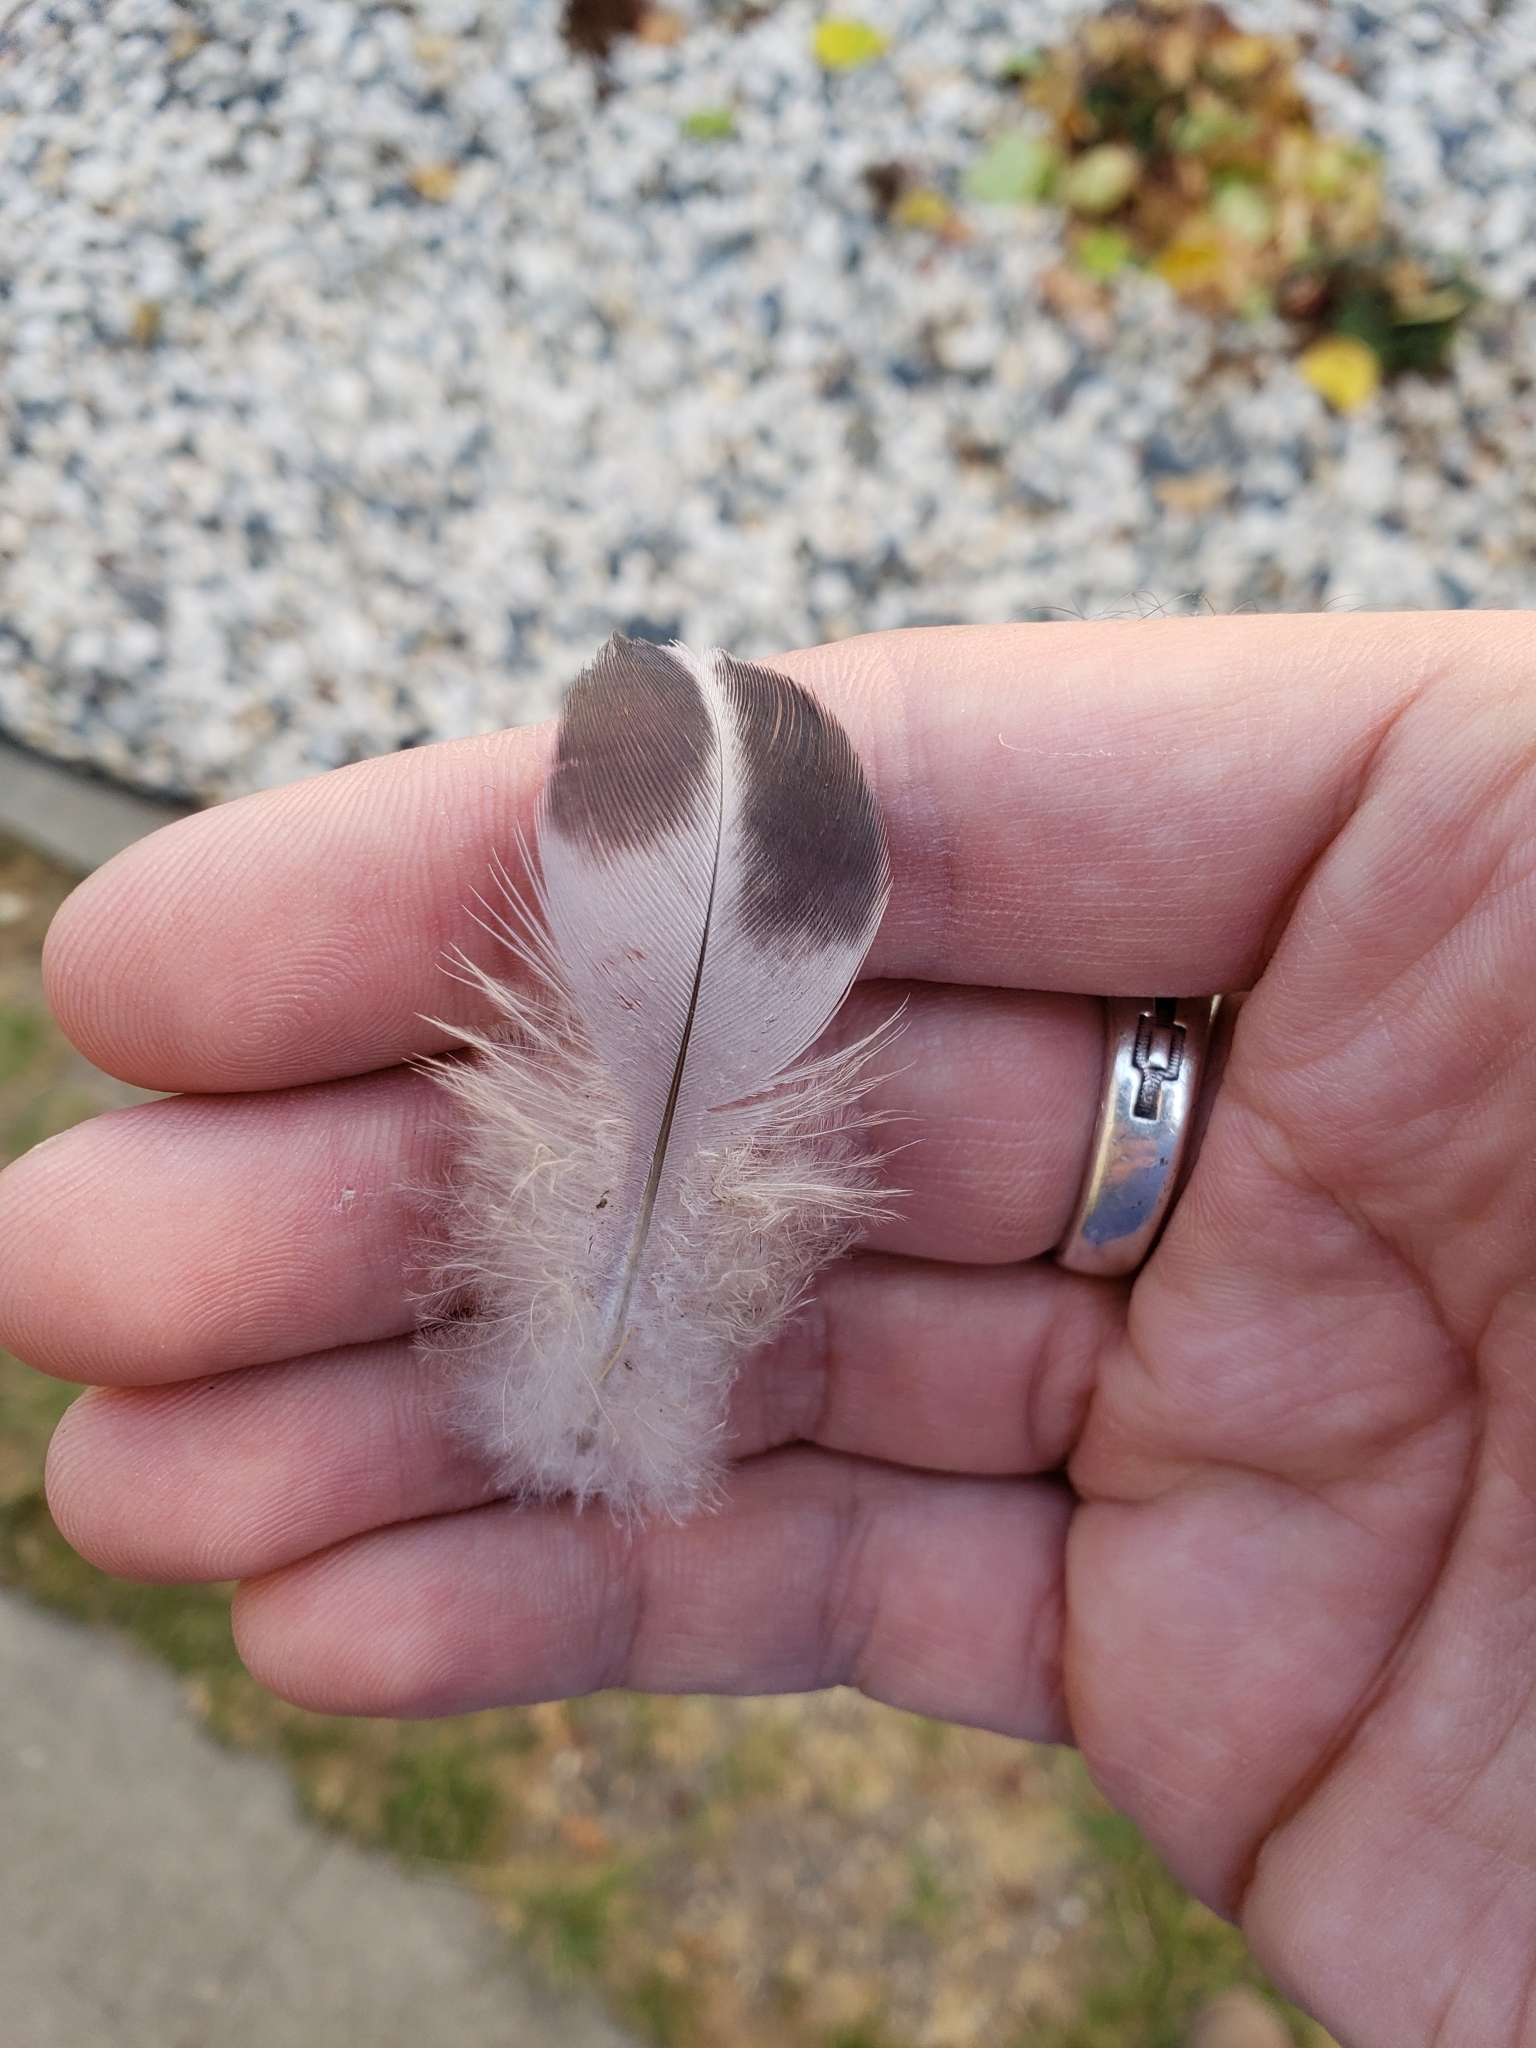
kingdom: Animalia
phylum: Chordata
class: Aves
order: Columbiformes
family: Columbidae
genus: Columba
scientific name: Columba livia
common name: Rock pigeon
